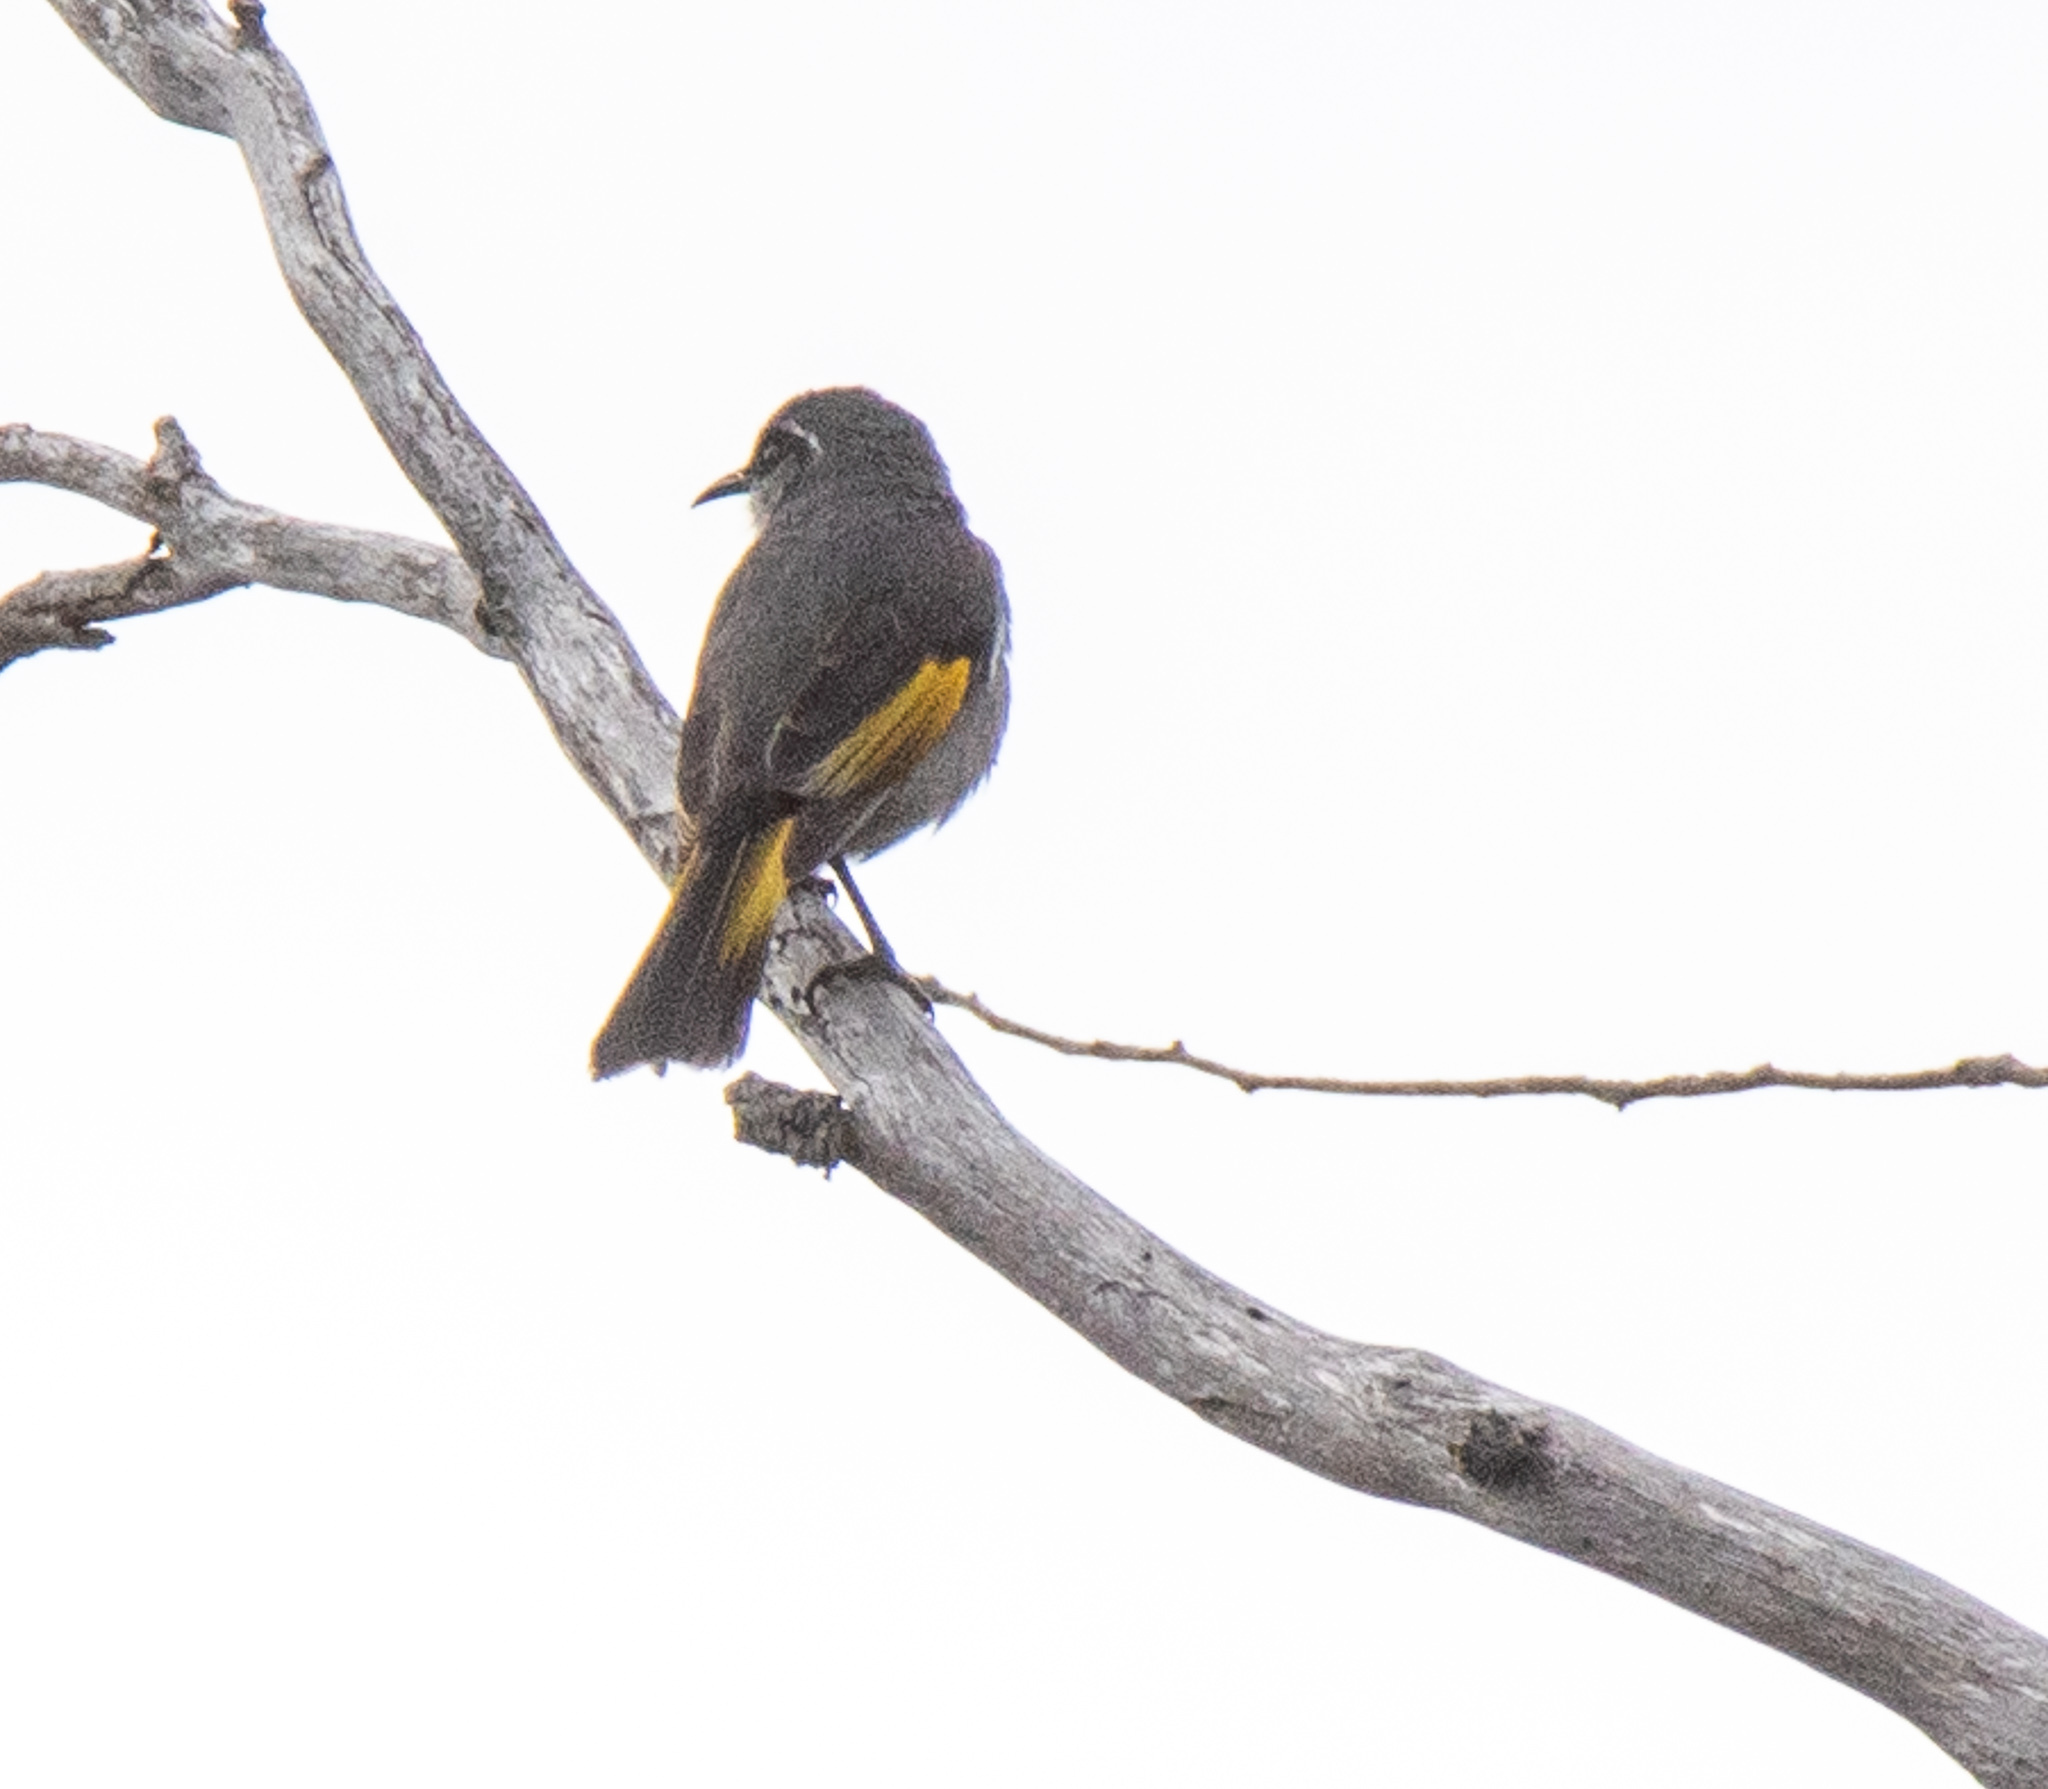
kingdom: Animalia
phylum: Chordata
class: Aves
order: Passeriformes
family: Meliphagidae
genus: Phylidonyris
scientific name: Phylidonyris pyrrhopterus
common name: Crescent honeyeater
